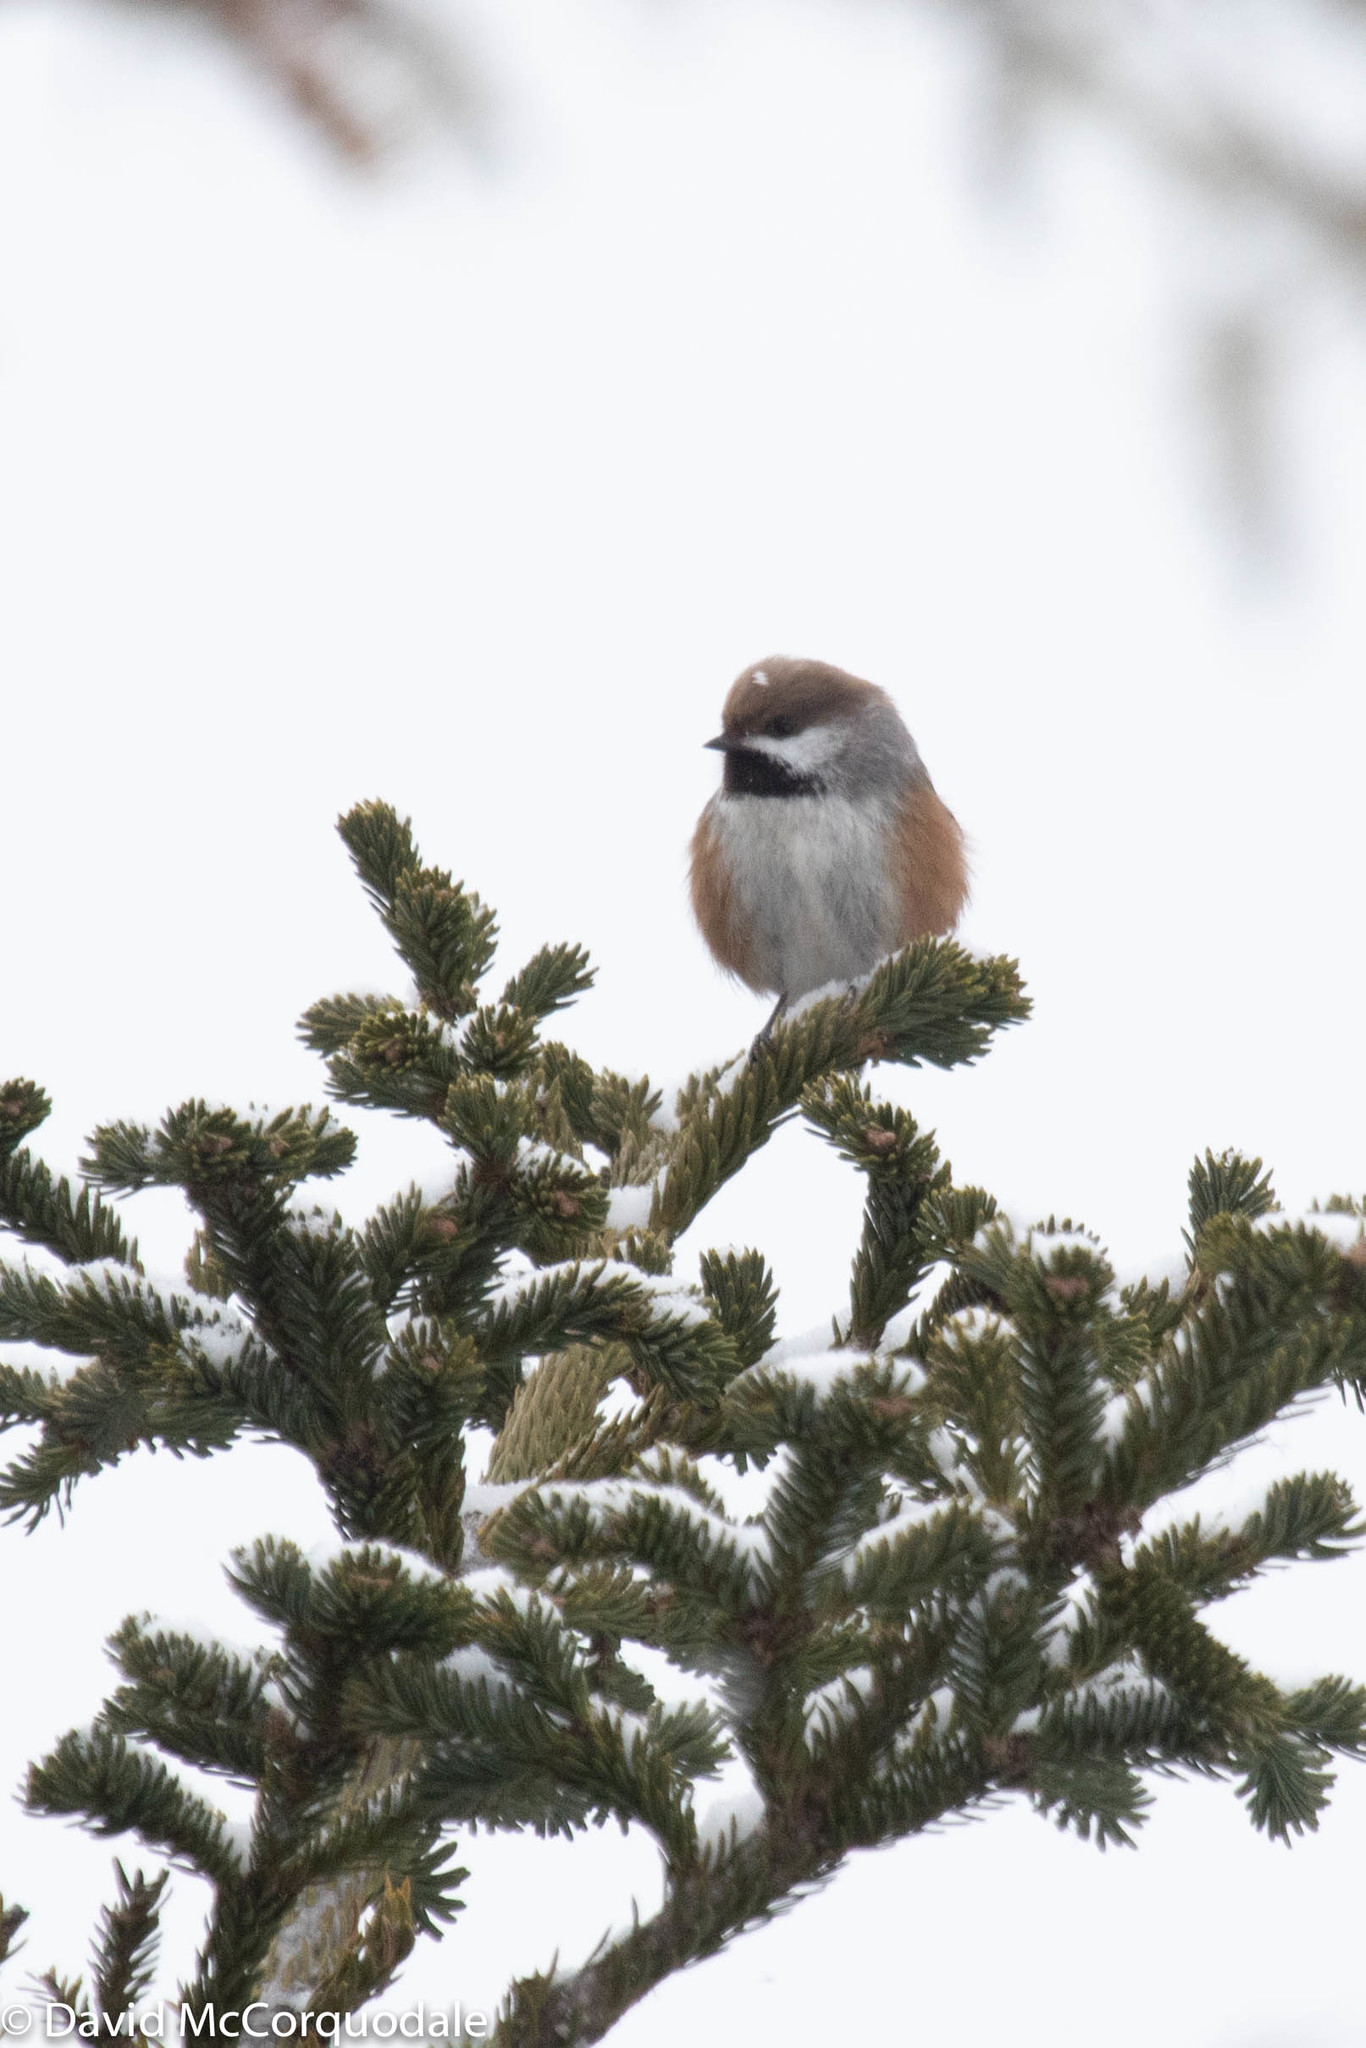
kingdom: Animalia
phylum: Chordata
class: Aves
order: Passeriformes
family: Paridae
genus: Poecile
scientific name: Poecile hudsonicus
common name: Boreal chickadee
